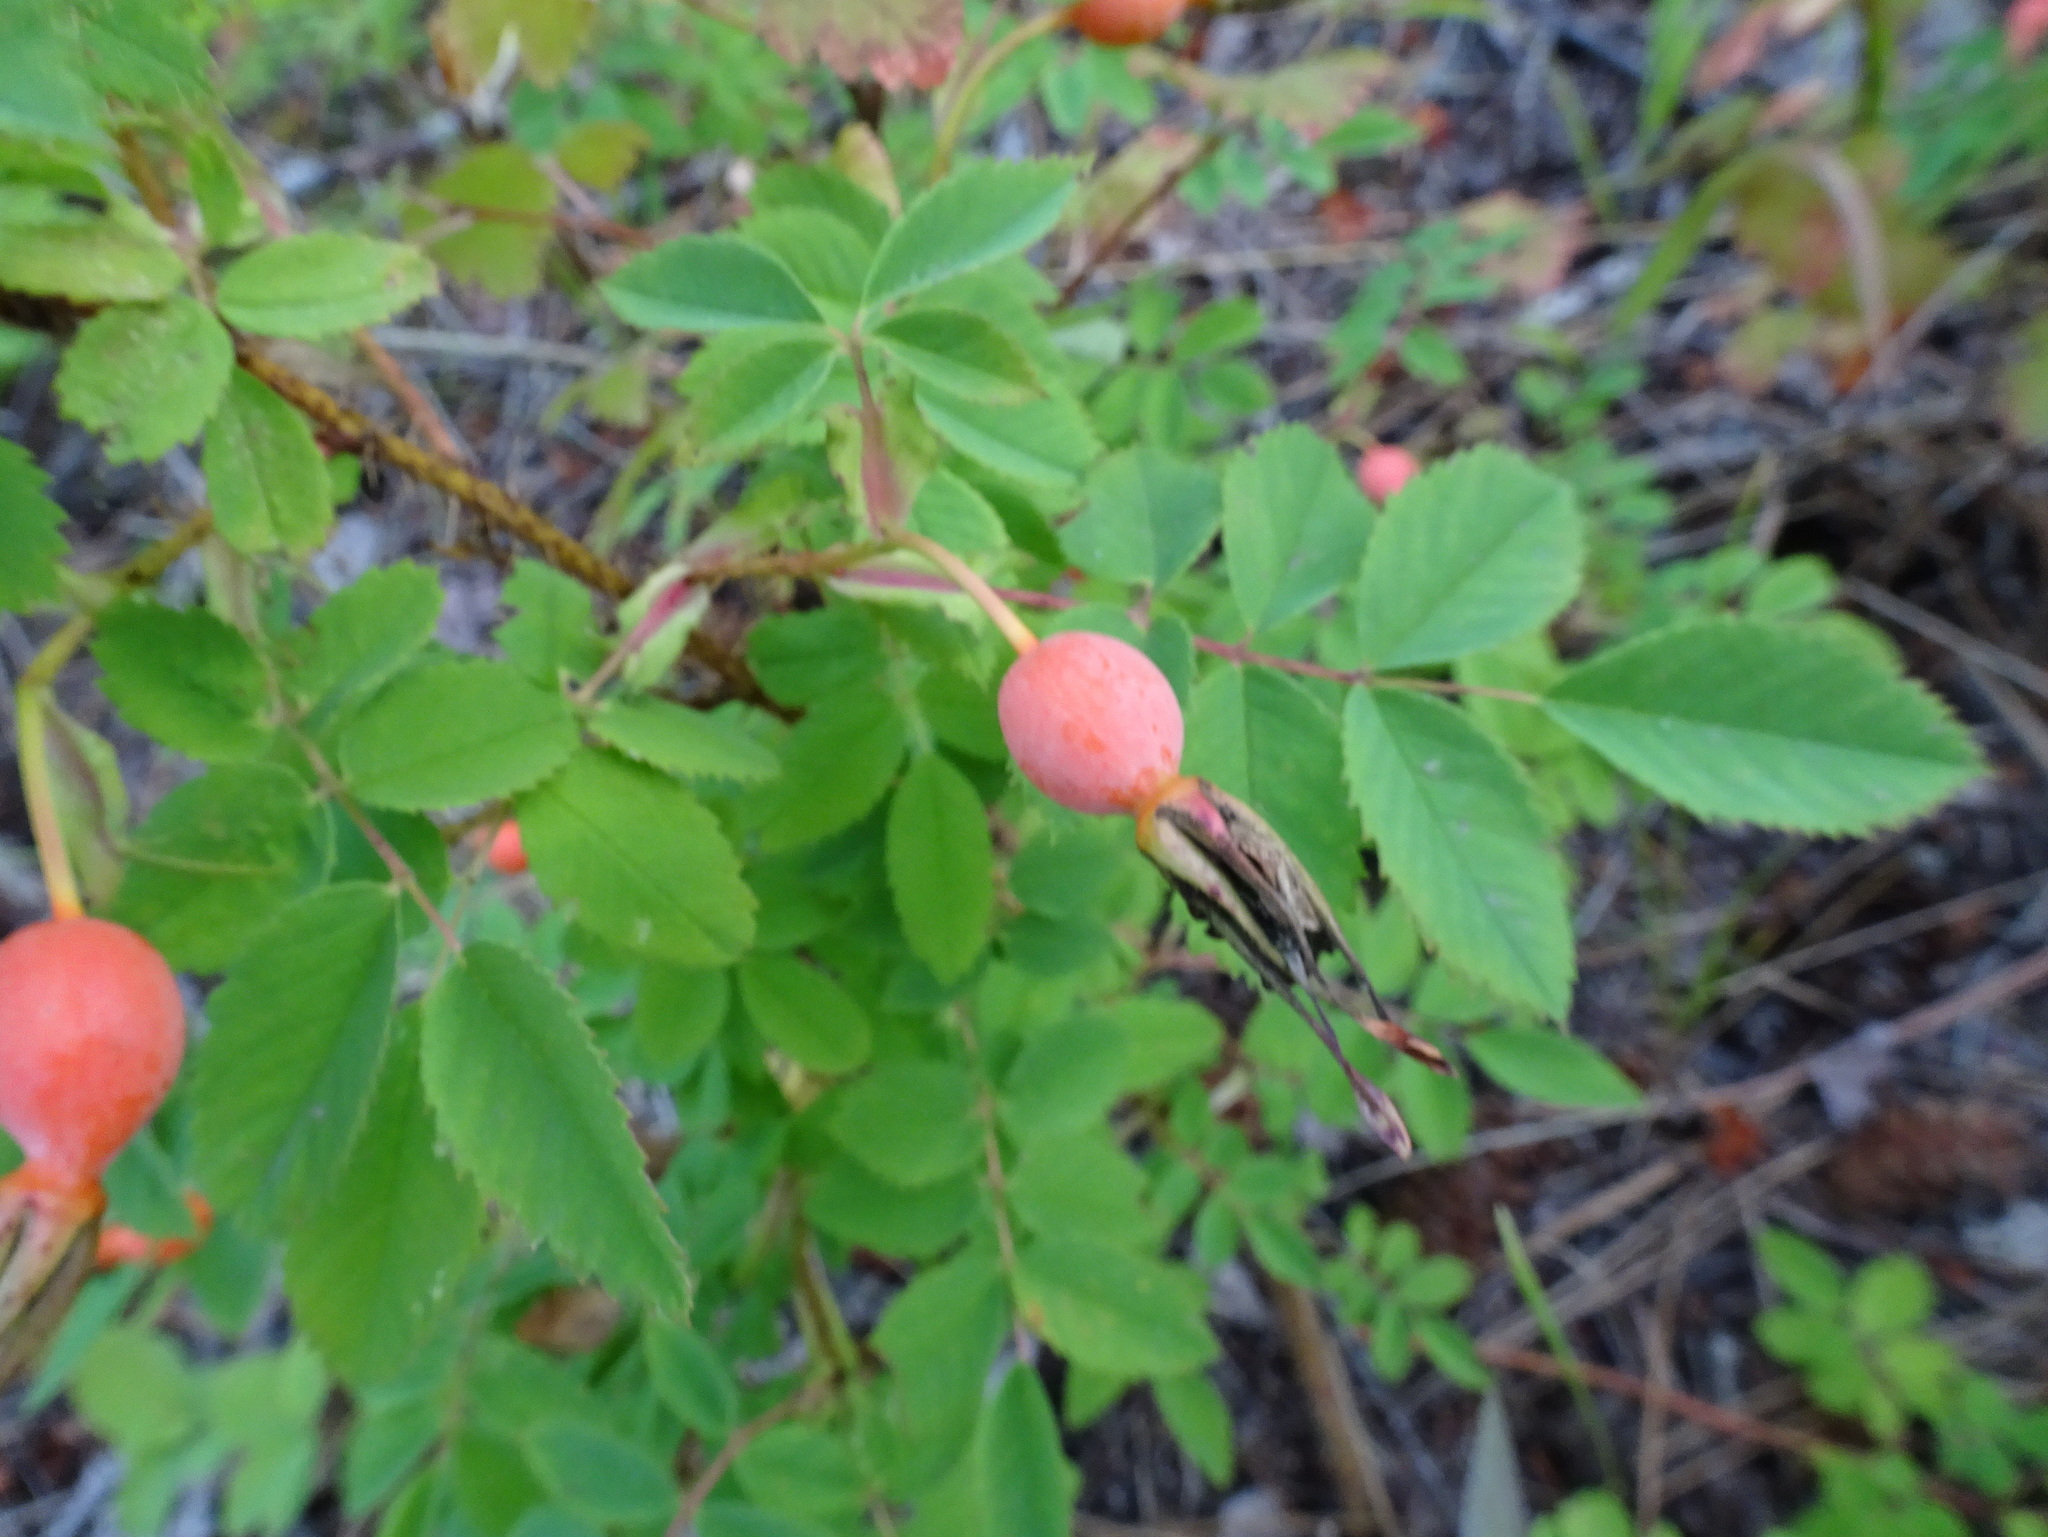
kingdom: Plantae
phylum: Tracheophyta
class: Magnoliopsida
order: Rosales
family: Rosaceae
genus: Rosa
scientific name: Rosa acicularis
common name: Prickly rose
